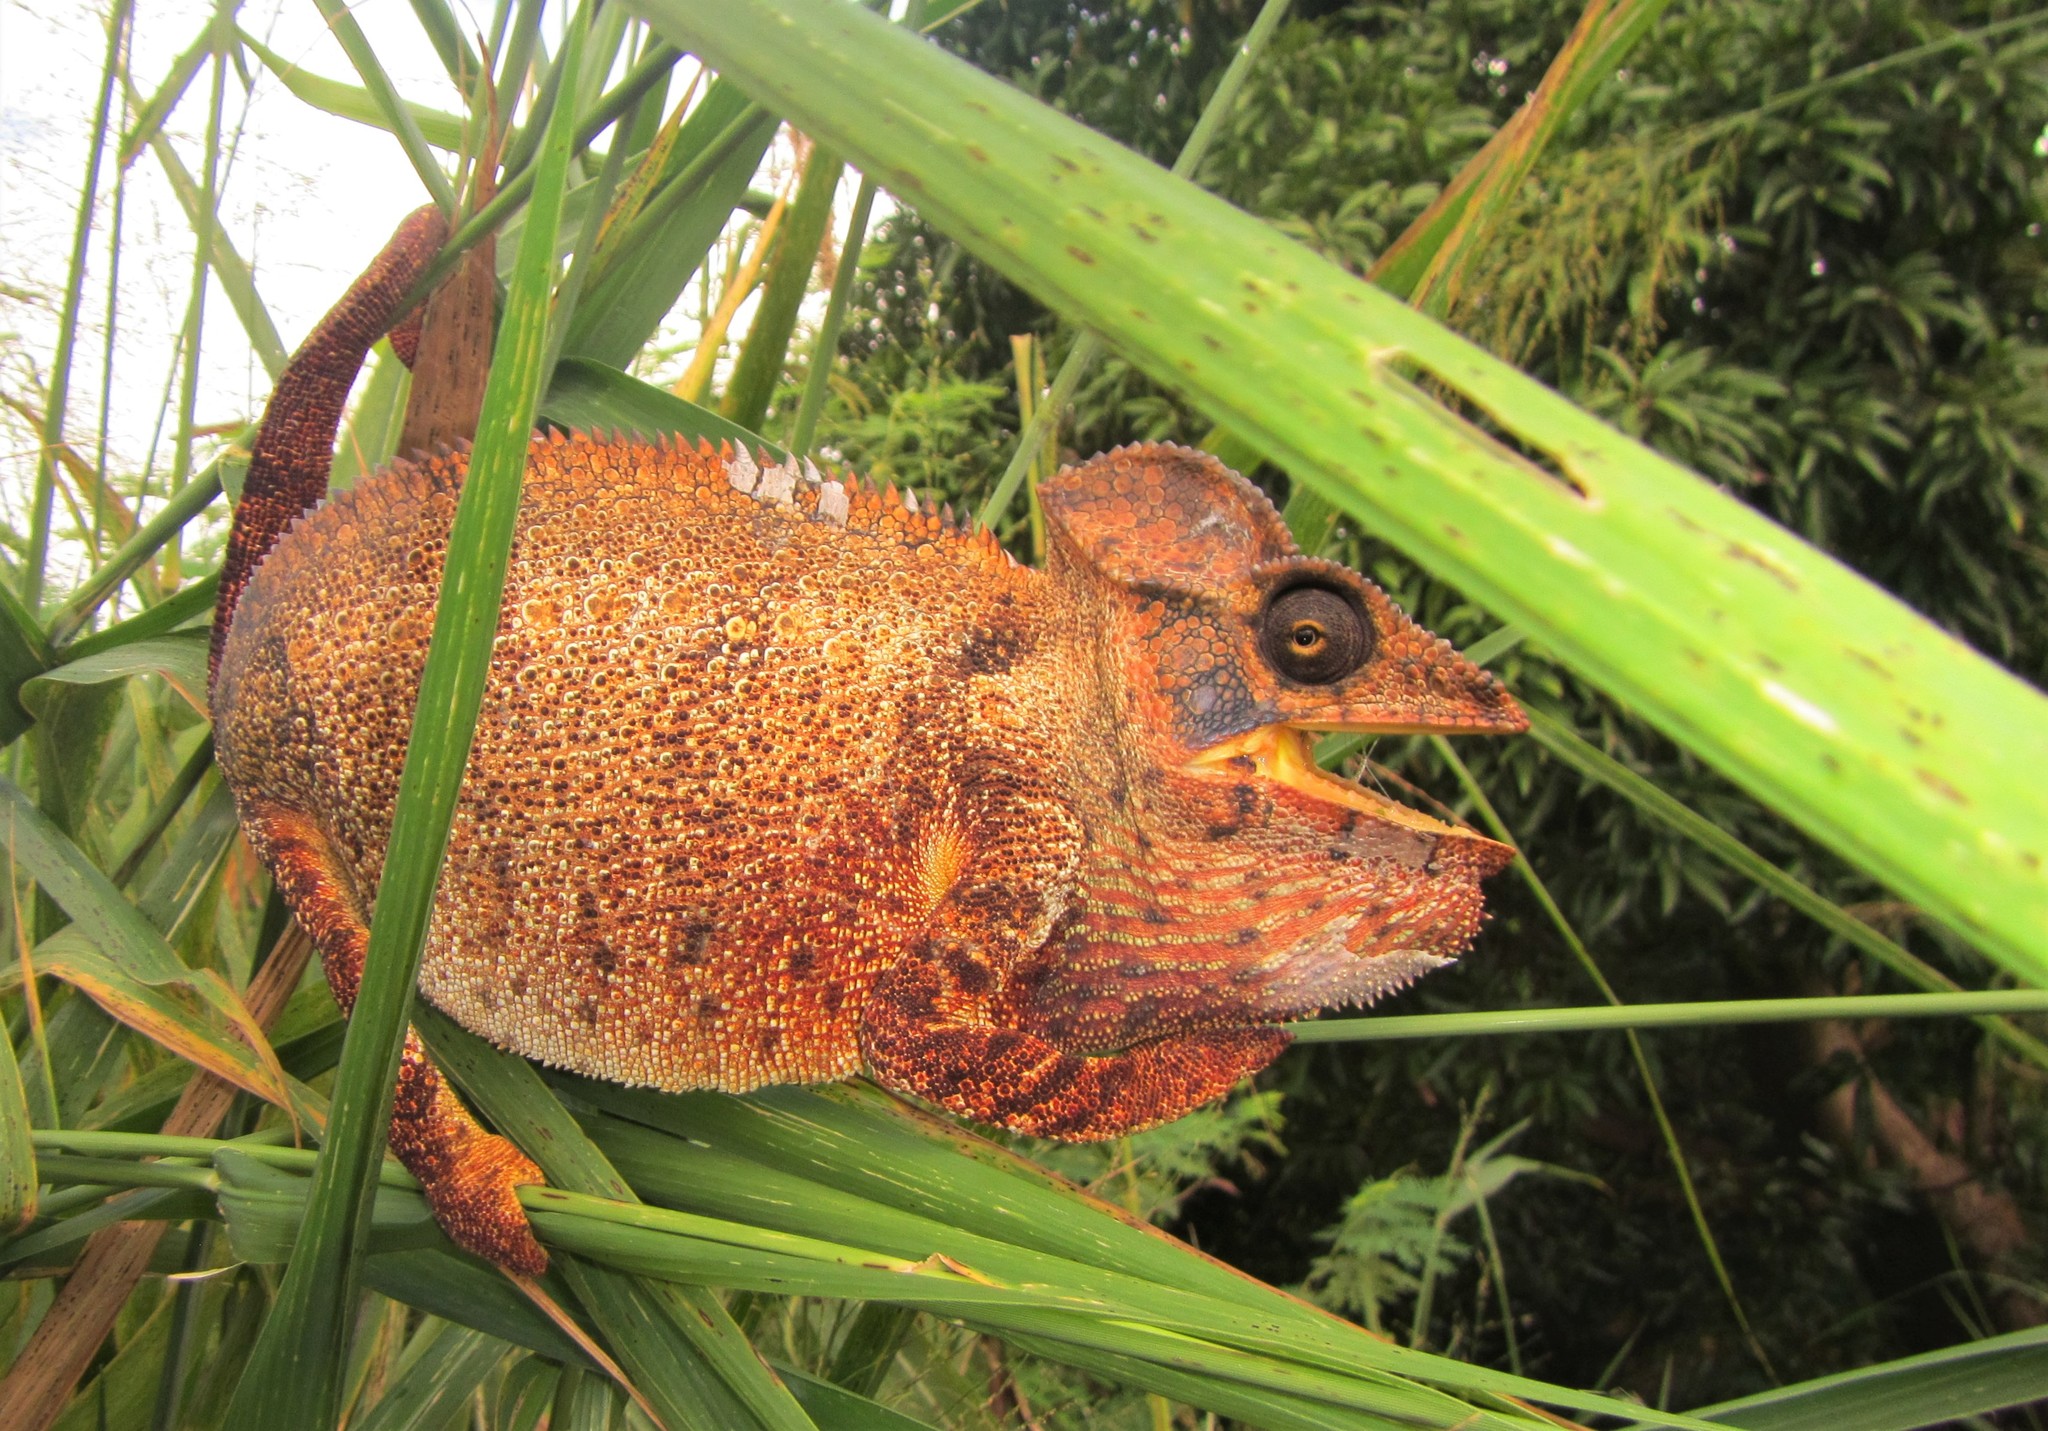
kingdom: Animalia
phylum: Chordata
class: Squamata
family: Chamaeleonidae
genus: Furcifer
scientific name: Furcifer oustaleti
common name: Oustalet's chameleon
